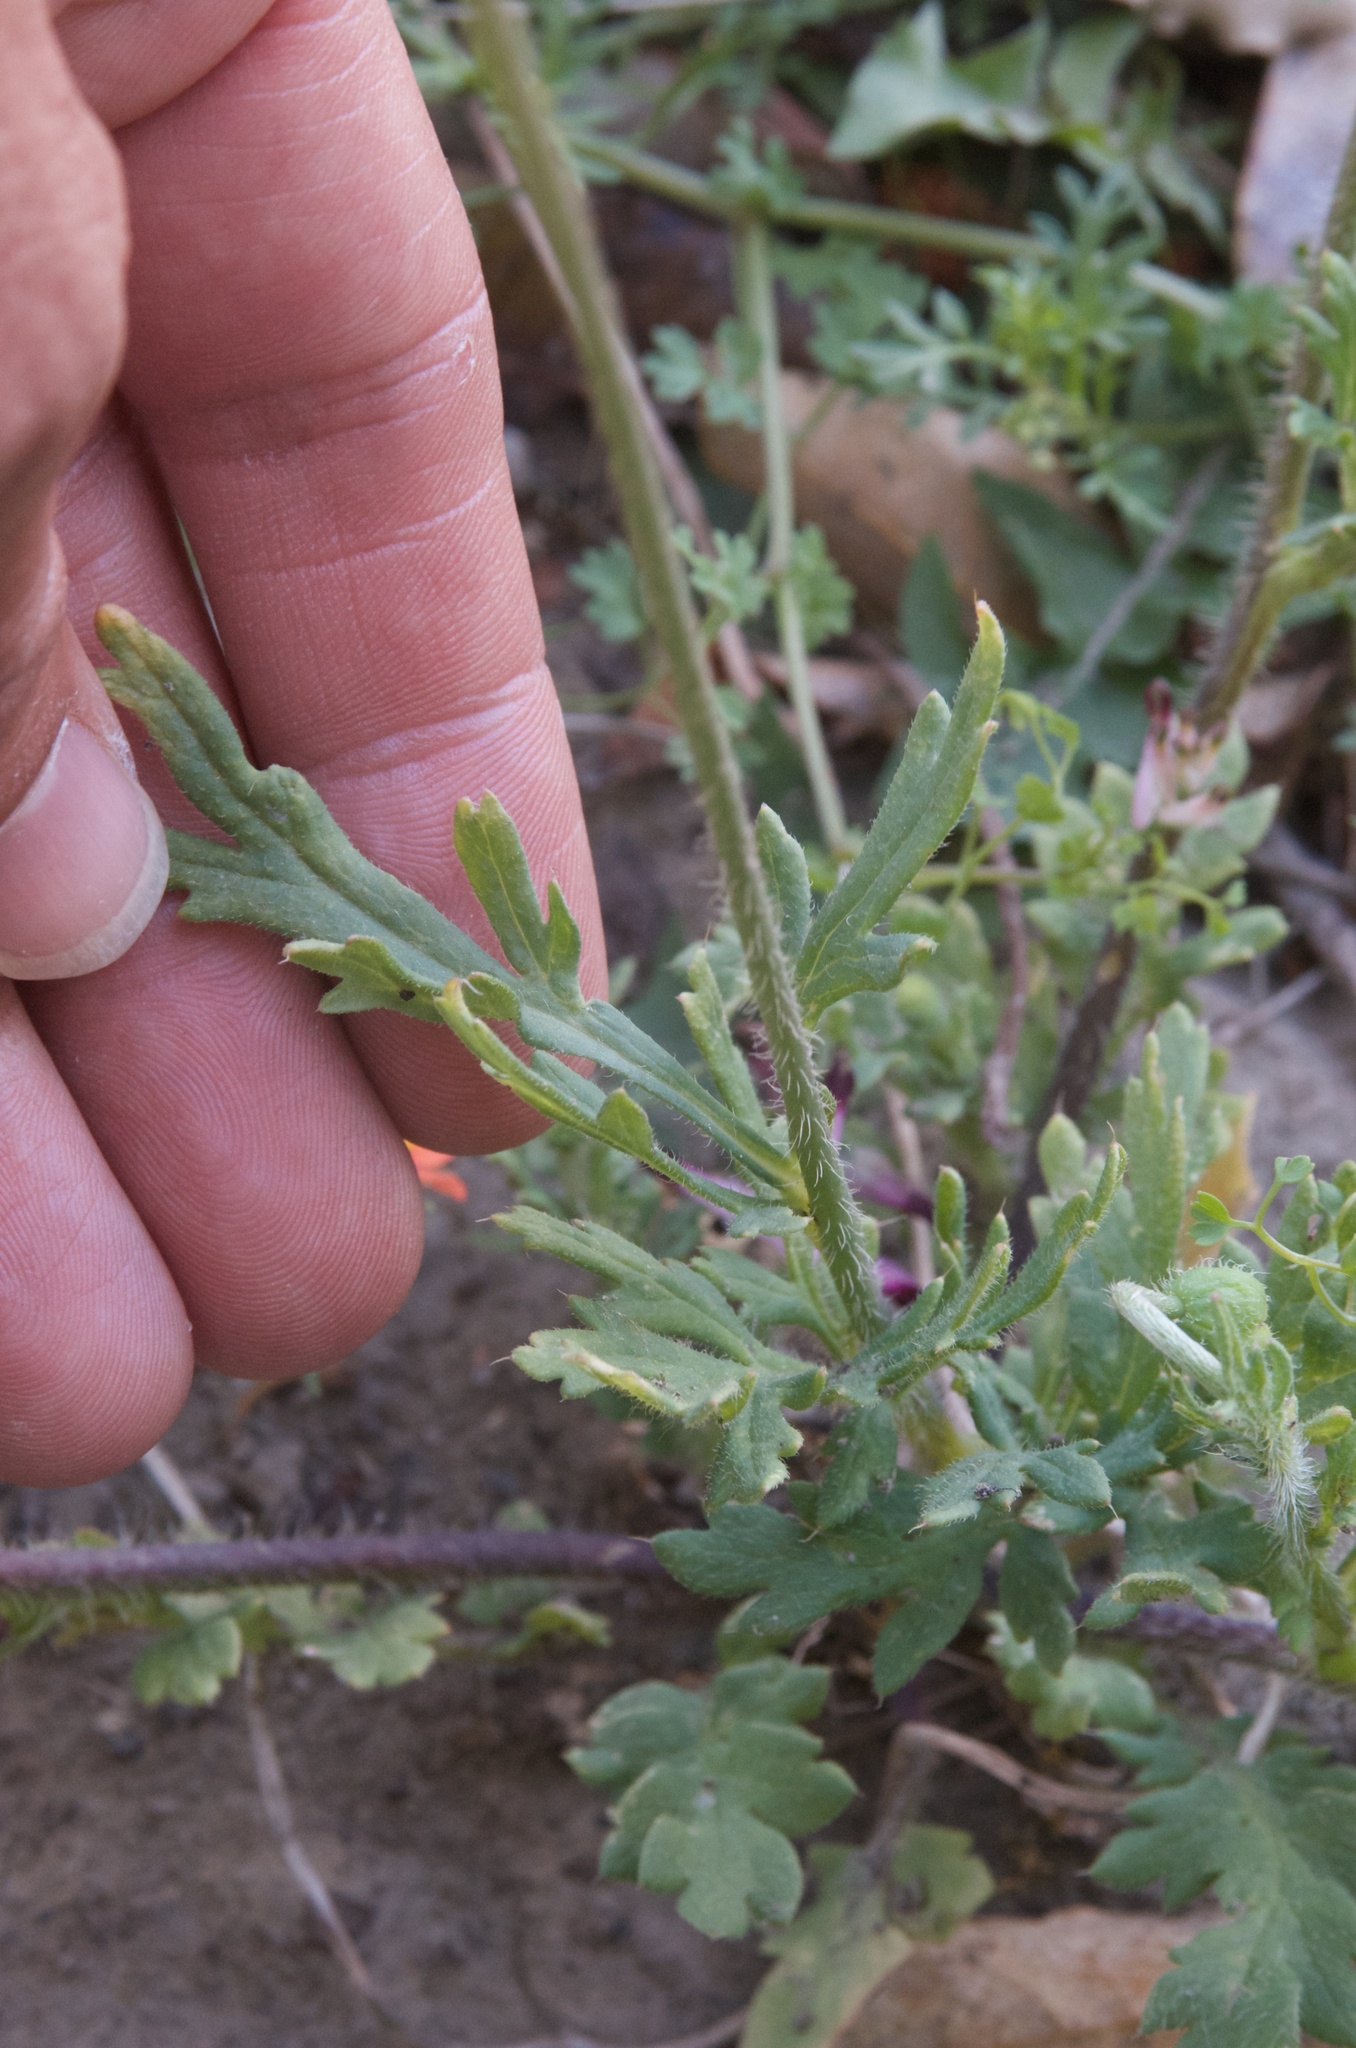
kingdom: Plantae
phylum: Tracheophyta
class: Magnoliopsida
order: Ranunculales
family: Papaveraceae
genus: Papaver
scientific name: Papaver dubium
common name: Long-headed poppy
